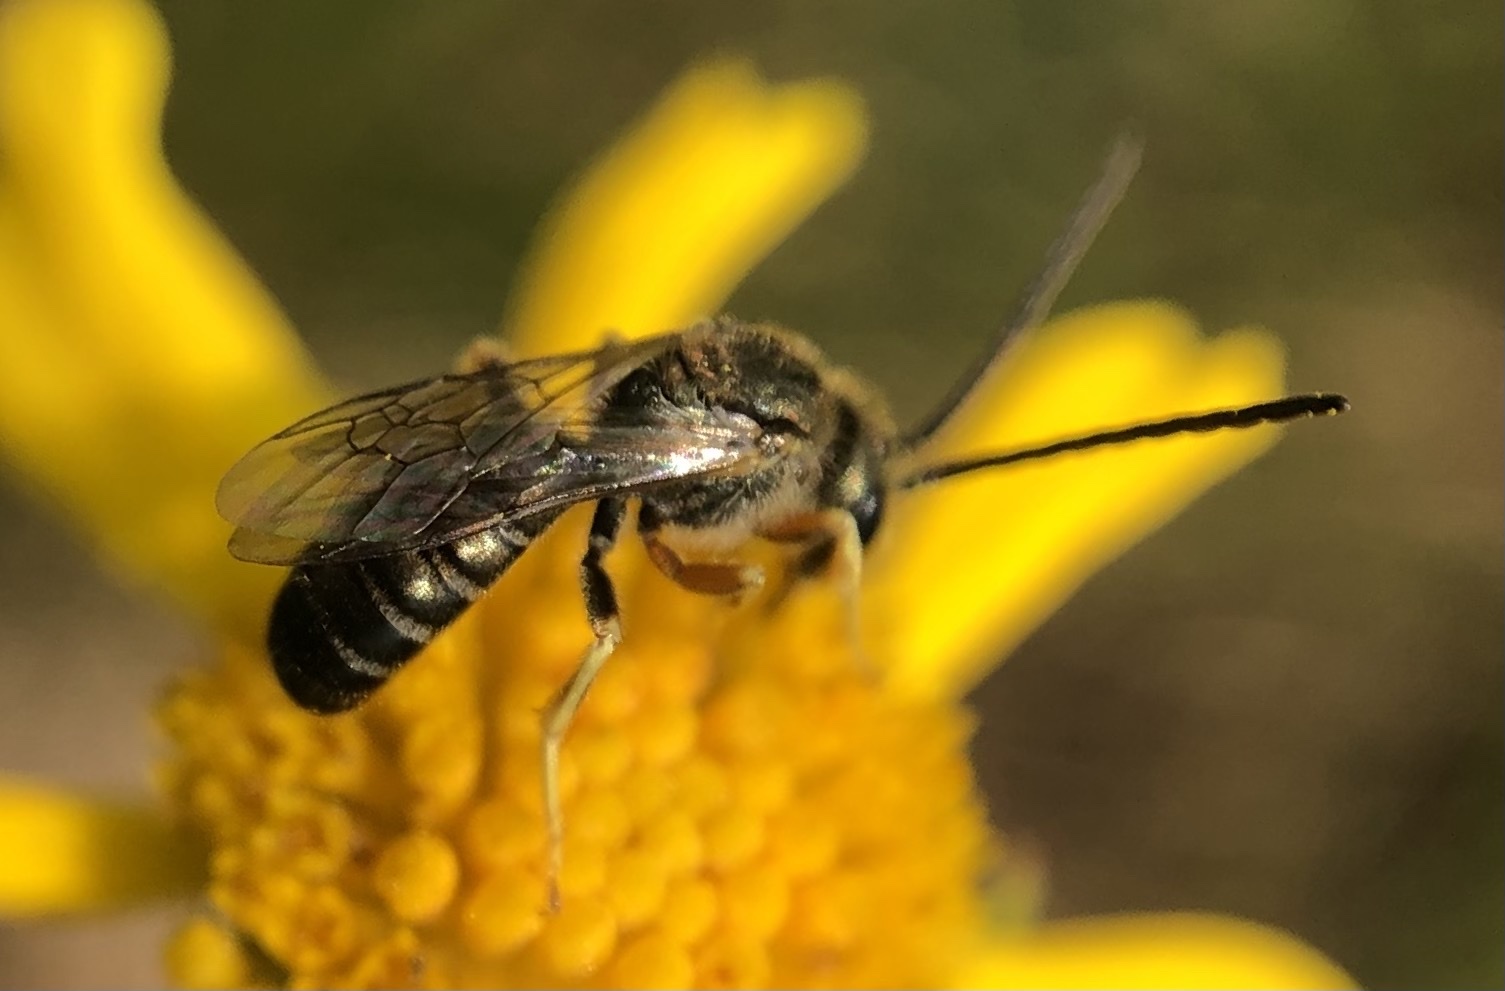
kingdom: Animalia
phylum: Arthropoda
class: Insecta
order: Hymenoptera
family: Halictidae
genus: Halictus
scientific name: Halictus confusus
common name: Southern bronze furrow bee
